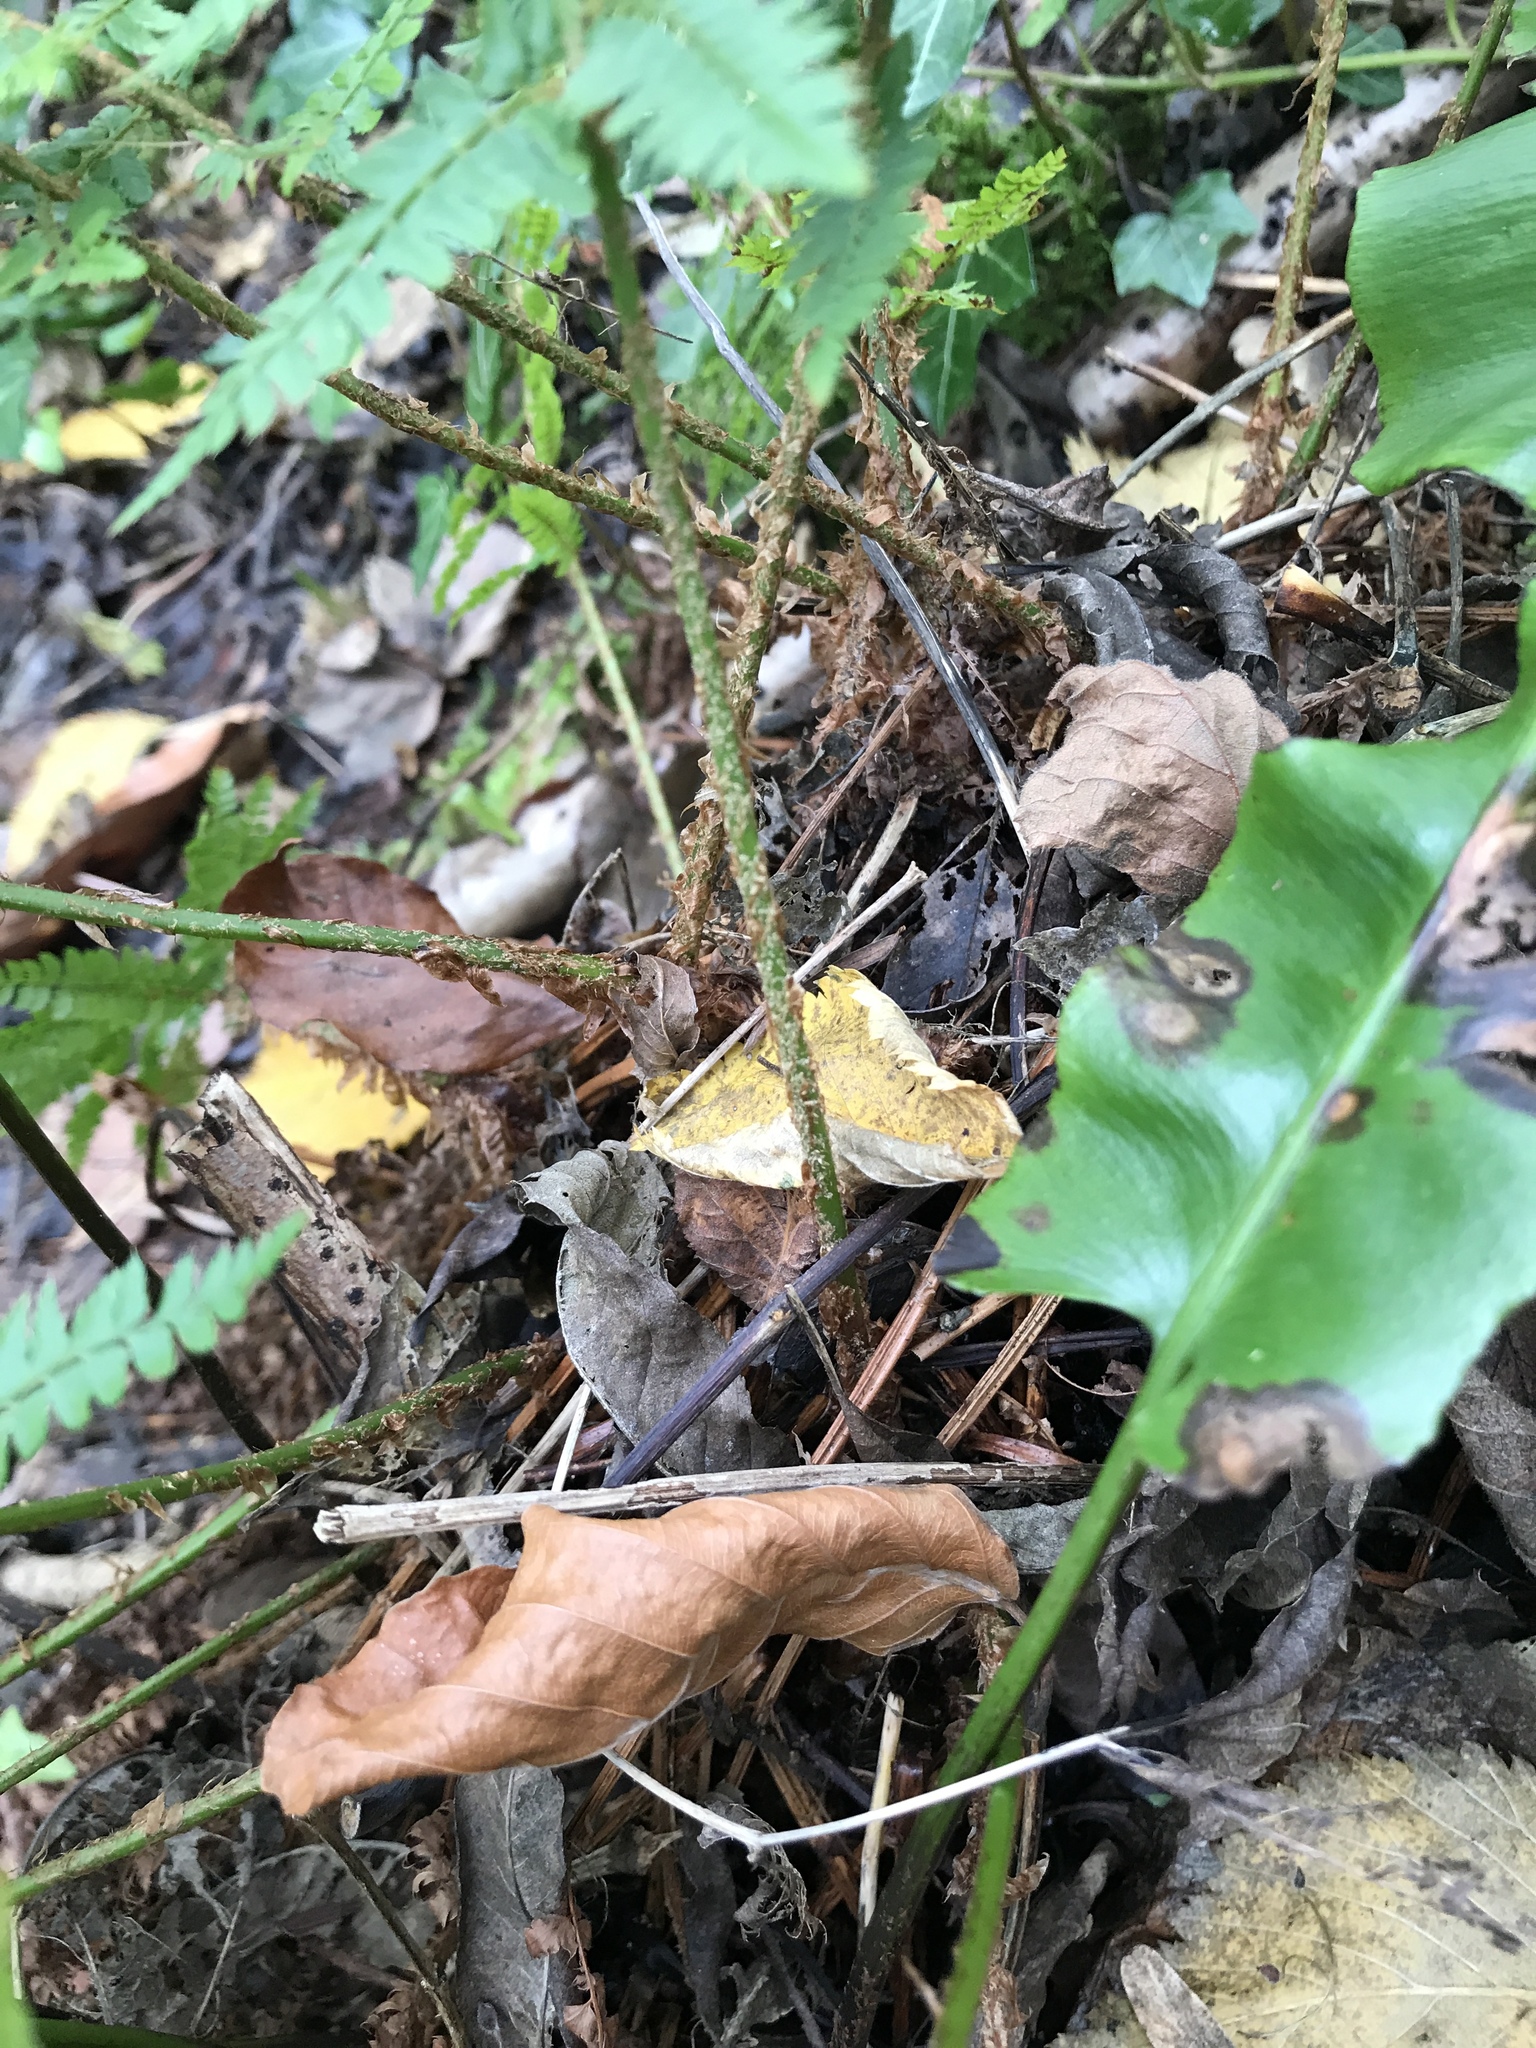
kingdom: Plantae
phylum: Tracheophyta
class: Polypodiopsida
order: Polypodiales
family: Dryopteridaceae
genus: Polystichum
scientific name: Polystichum setiferum
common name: Soft shield-fern
